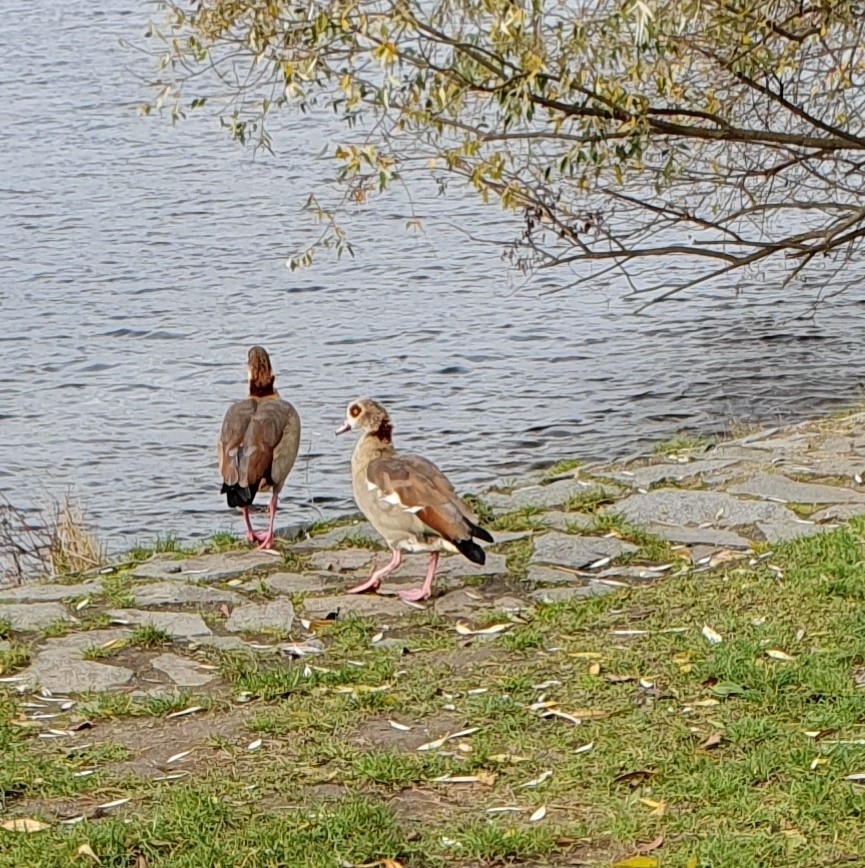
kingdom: Animalia
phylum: Chordata
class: Aves
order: Anseriformes
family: Anatidae
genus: Alopochen
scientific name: Alopochen aegyptiaca
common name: Egyptian goose
